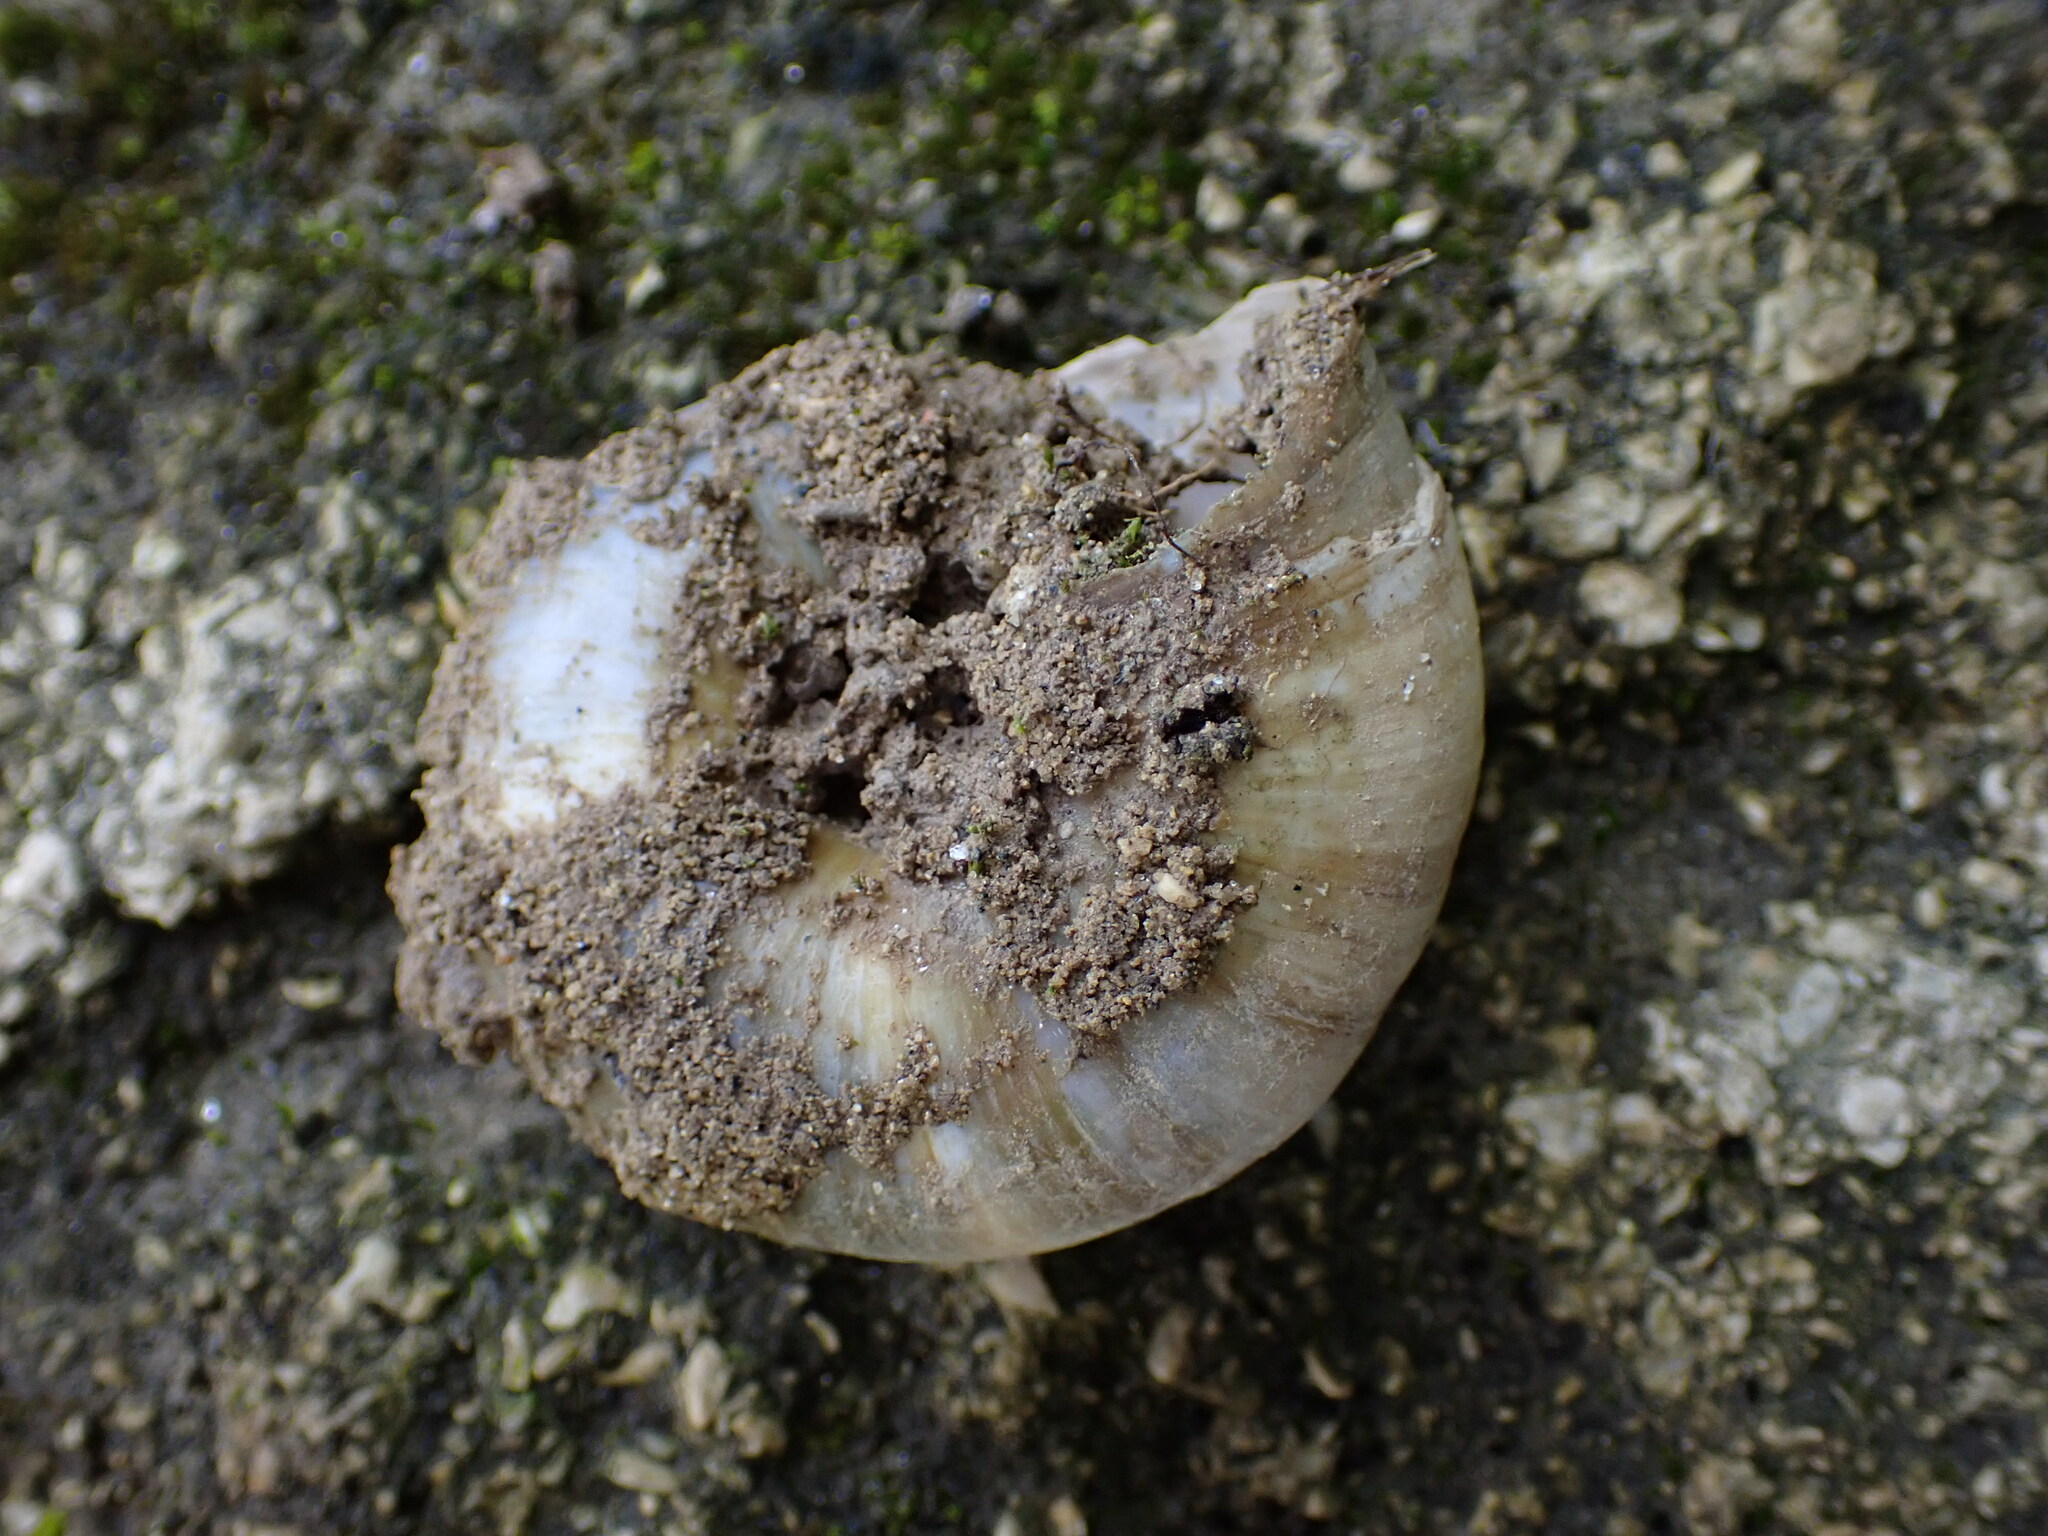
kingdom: Animalia
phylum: Mollusca
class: Gastropoda
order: Stylommatophora
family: Zonitidae
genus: Zonites
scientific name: Zonites algirus
